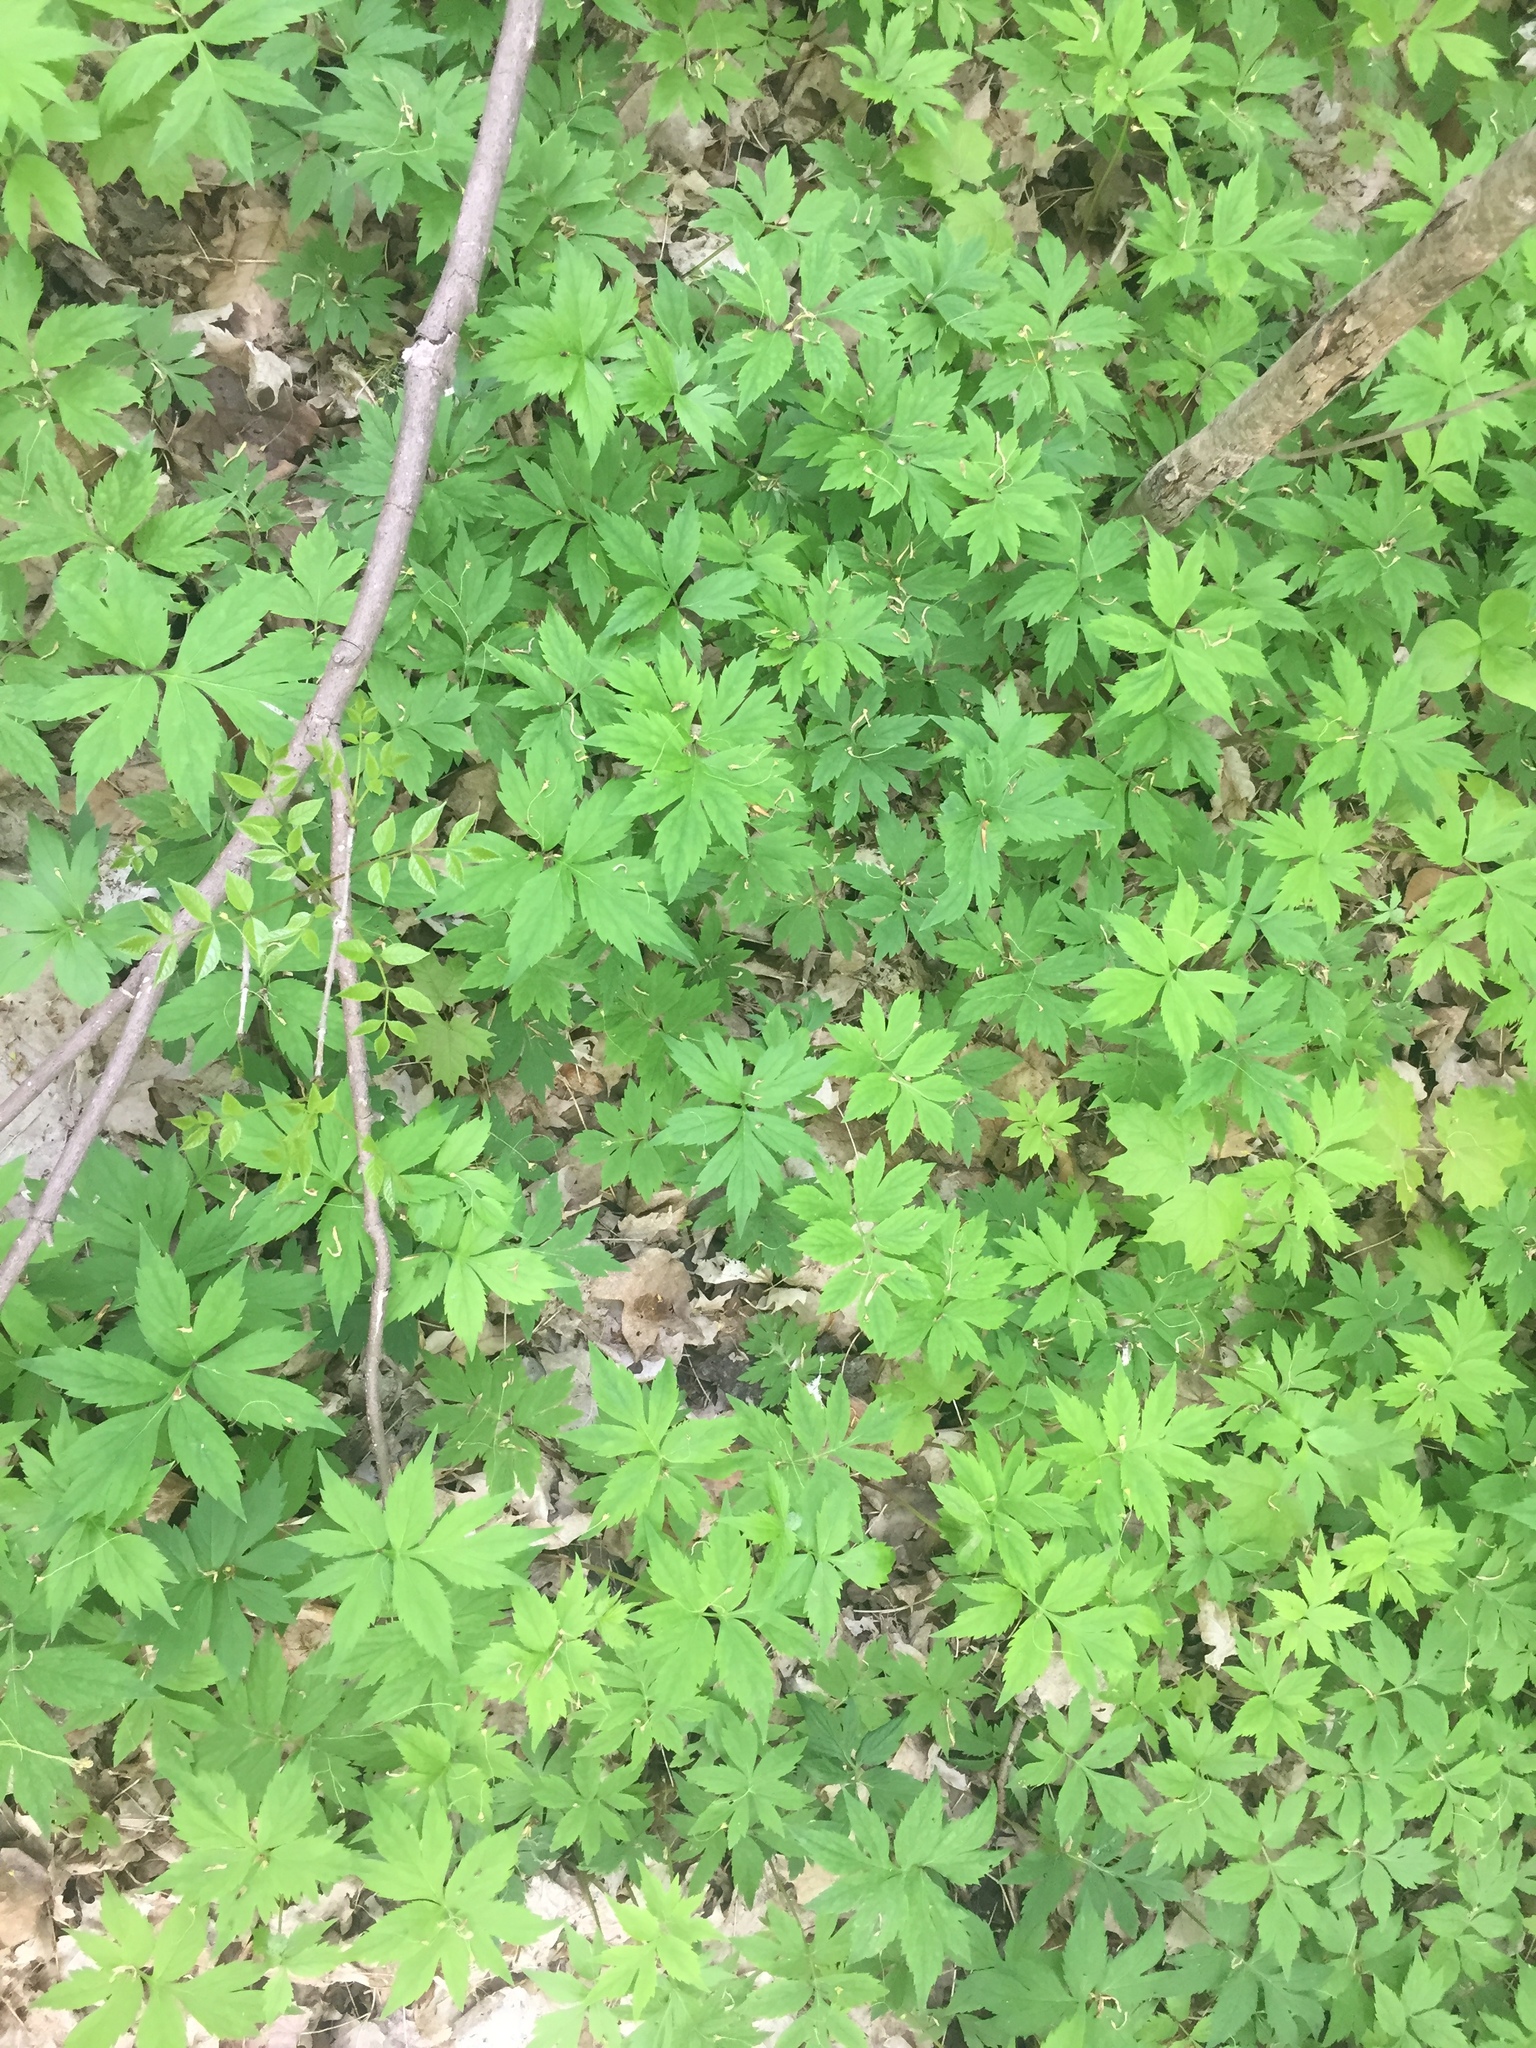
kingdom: Plantae
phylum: Tracheophyta
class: Magnoliopsida
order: Boraginales
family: Hydrophyllaceae
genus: Hydrophyllum
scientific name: Hydrophyllum virginianum
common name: Virginia waterleaf
